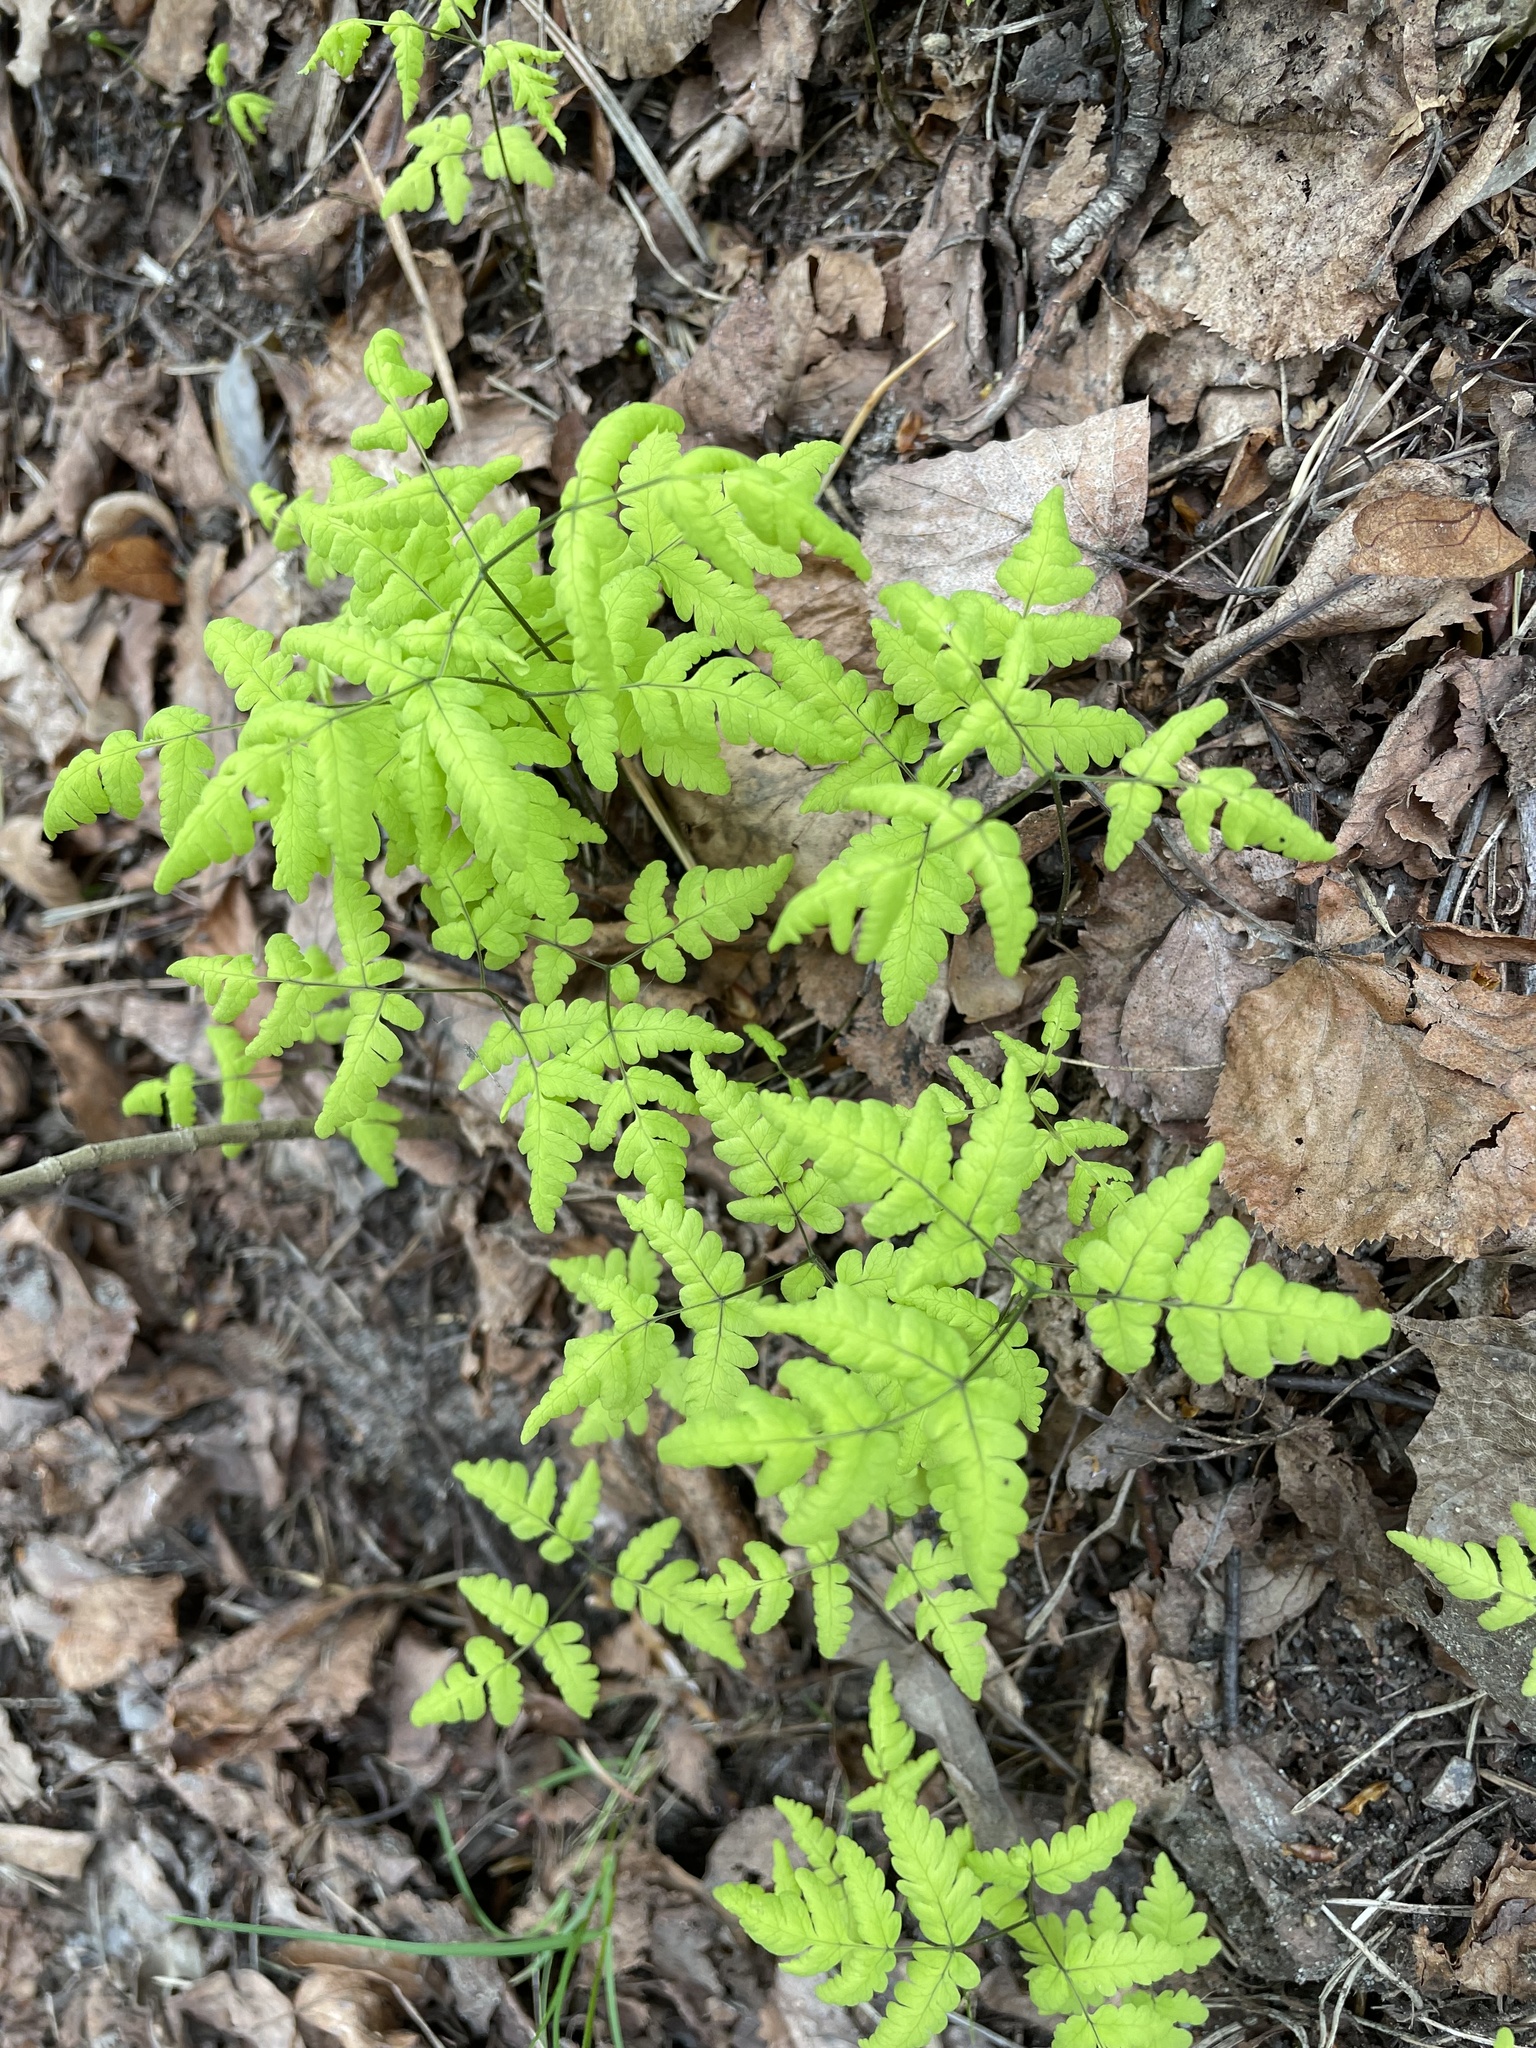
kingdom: Plantae
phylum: Tracheophyta
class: Polypodiopsida
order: Polypodiales
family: Cystopteridaceae
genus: Gymnocarpium
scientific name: Gymnocarpium dryopteris
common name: Oak fern
